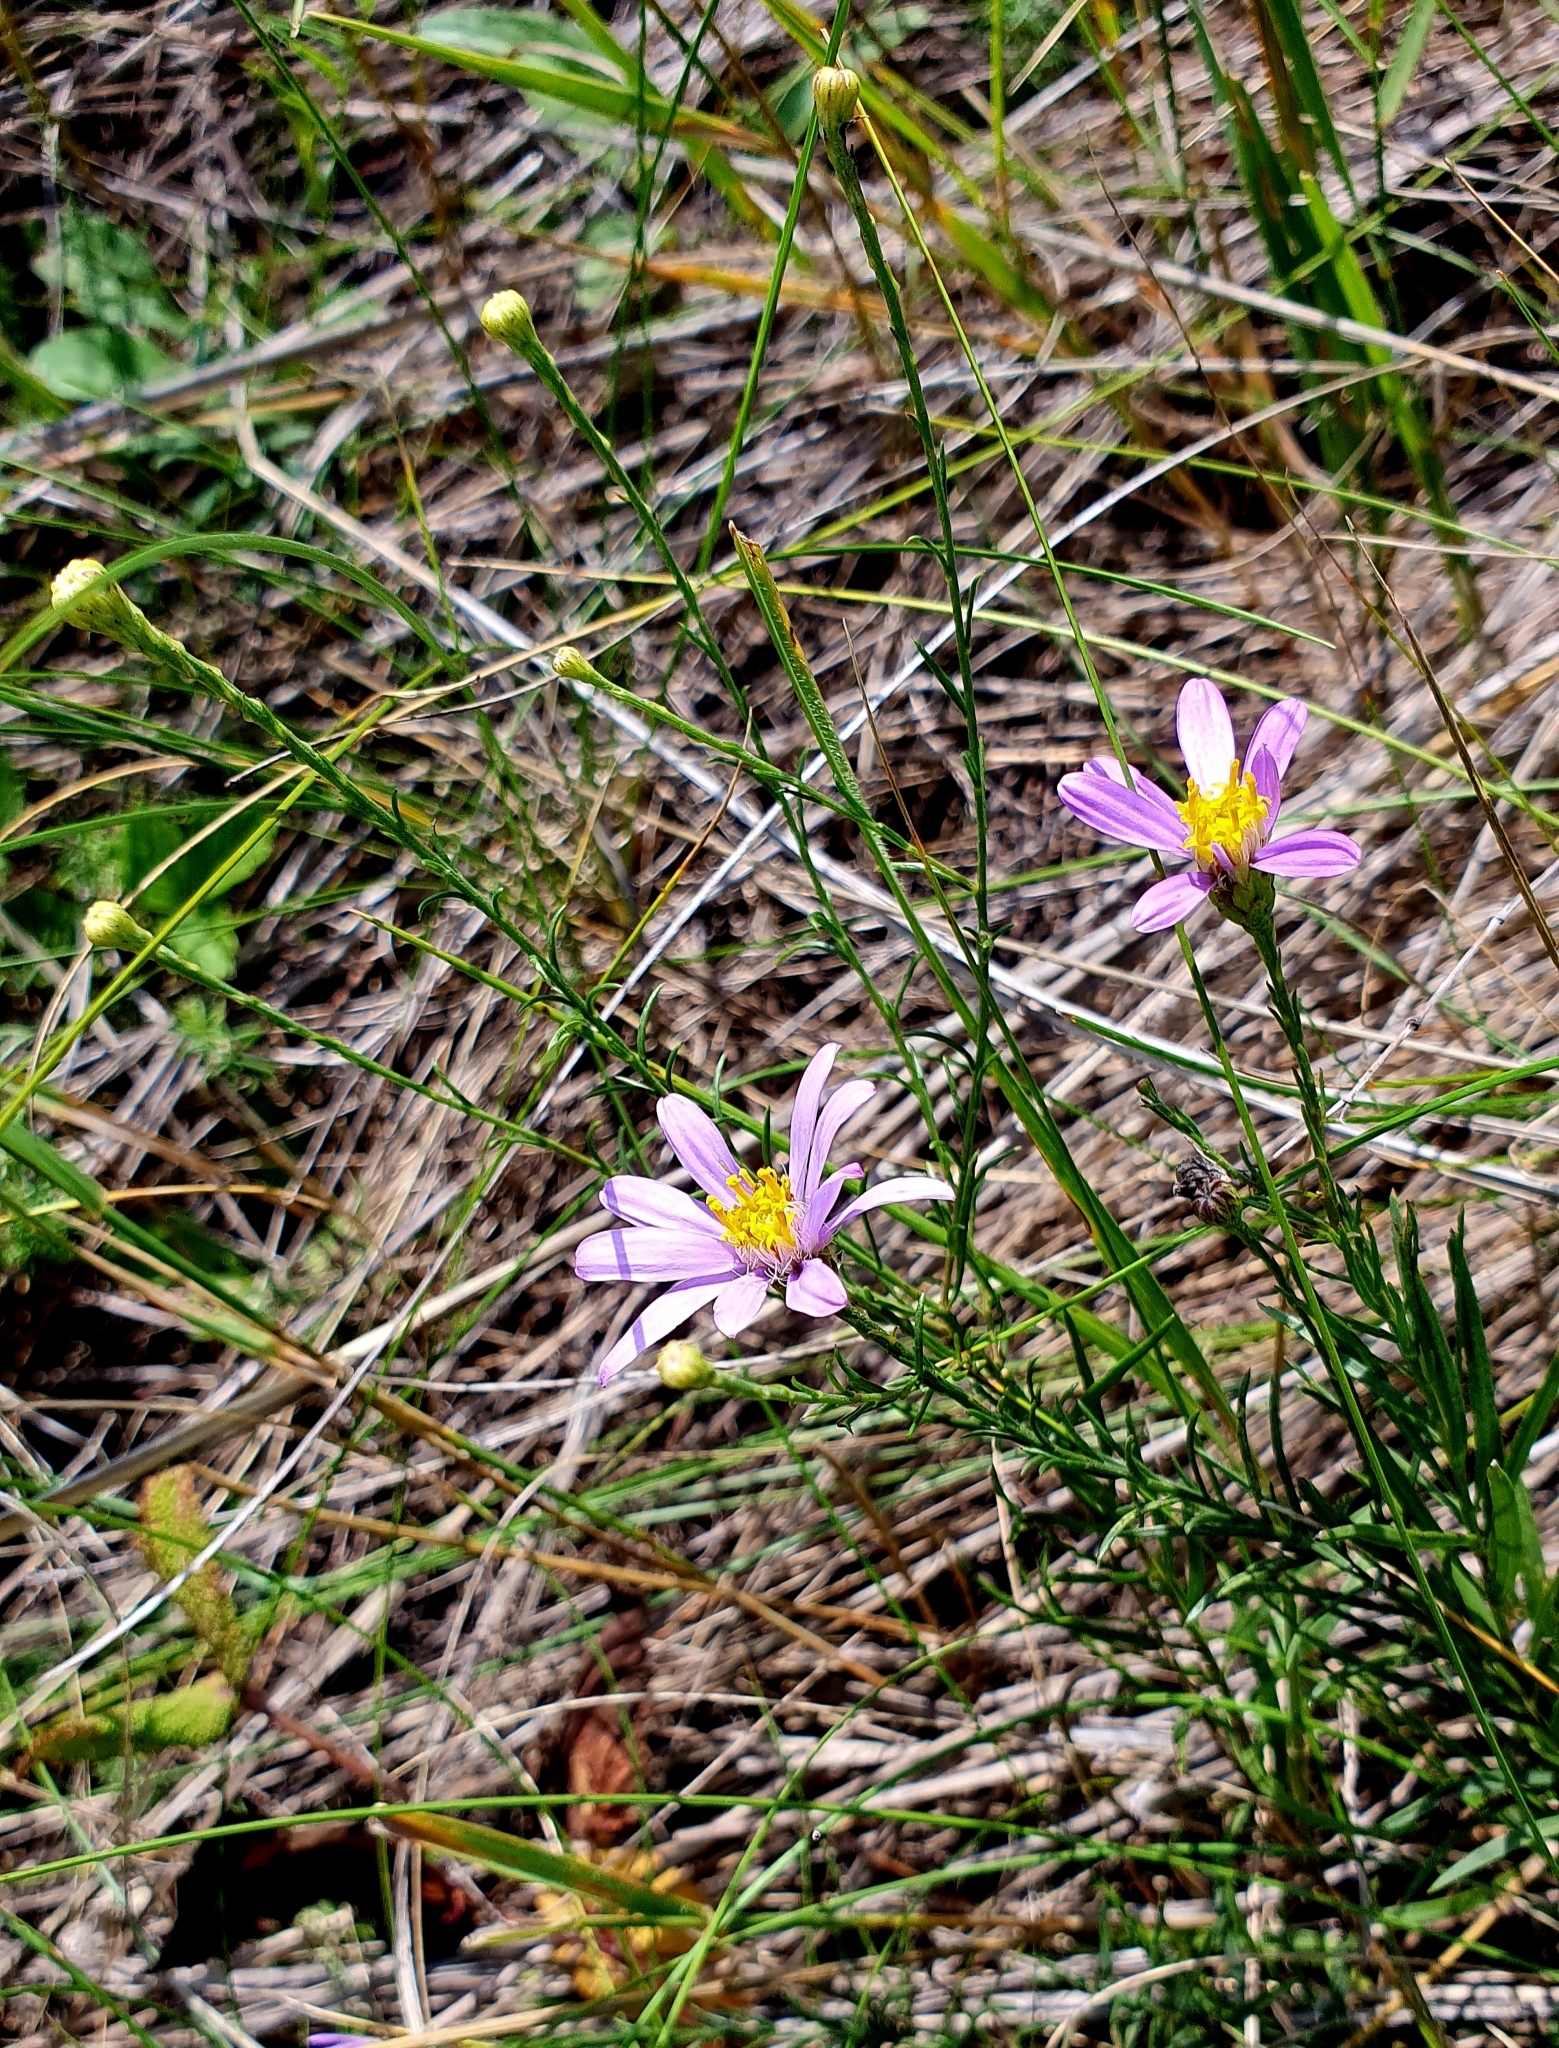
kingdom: Plantae
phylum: Tracheophyta
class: Magnoliopsida
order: Asterales
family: Asteraceae
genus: Galatella
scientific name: Galatella angustissima
